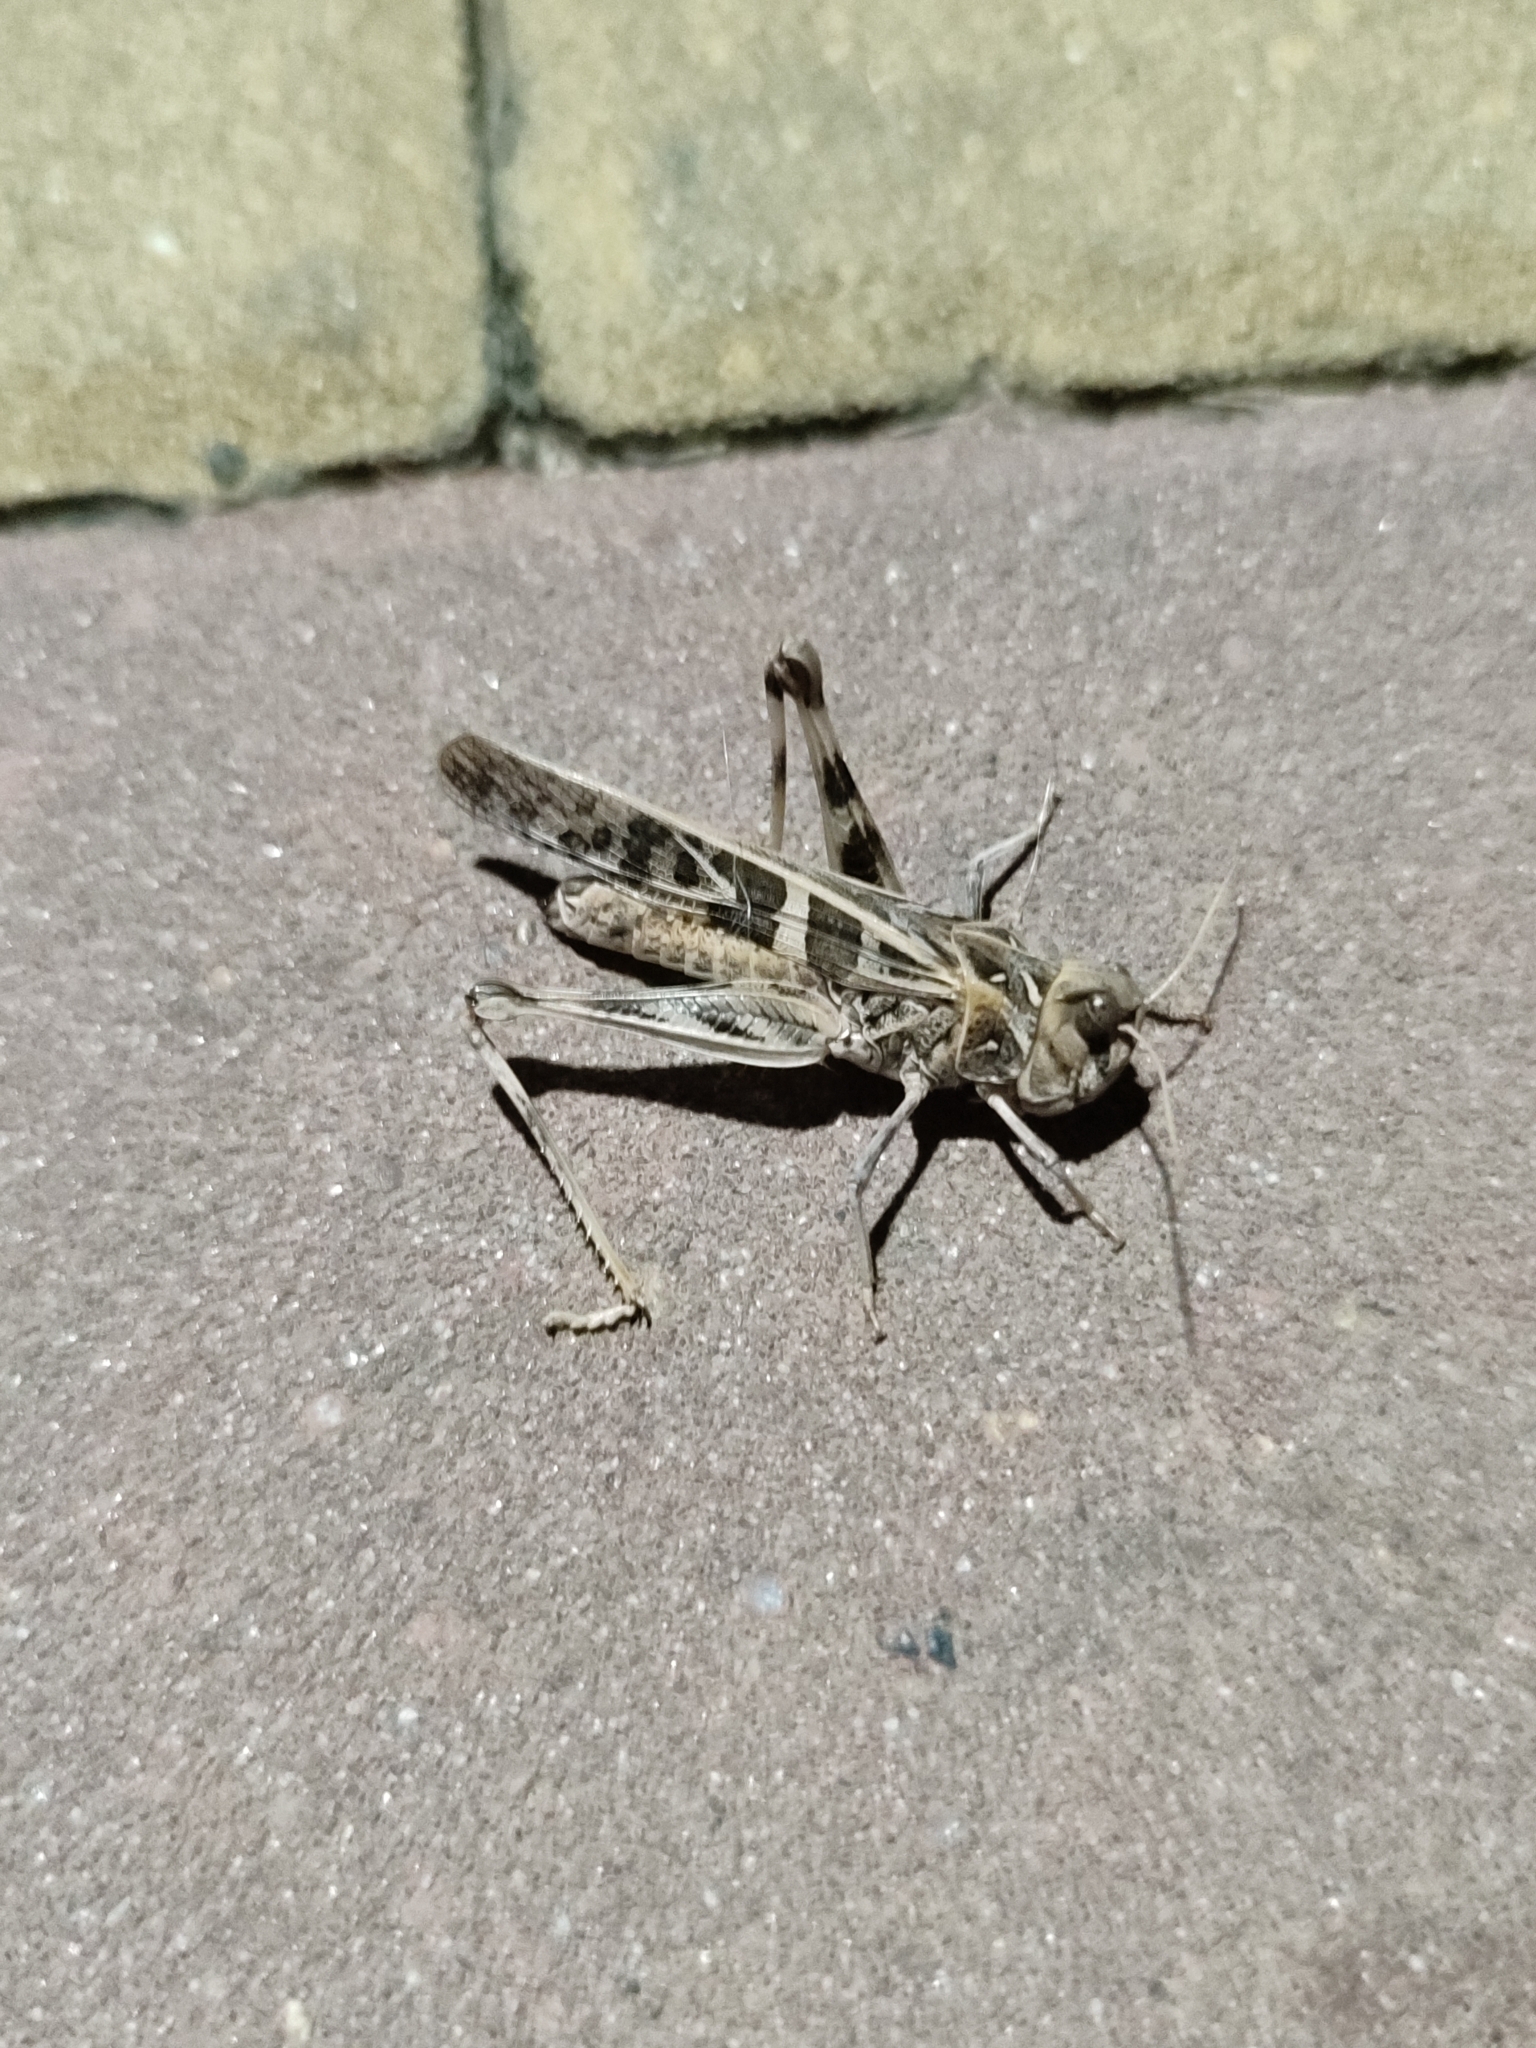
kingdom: Animalia
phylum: Arthropoda
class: Insecta
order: Orthoptera
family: Acrididae
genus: Oedaleus
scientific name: Oedaleus decorus
